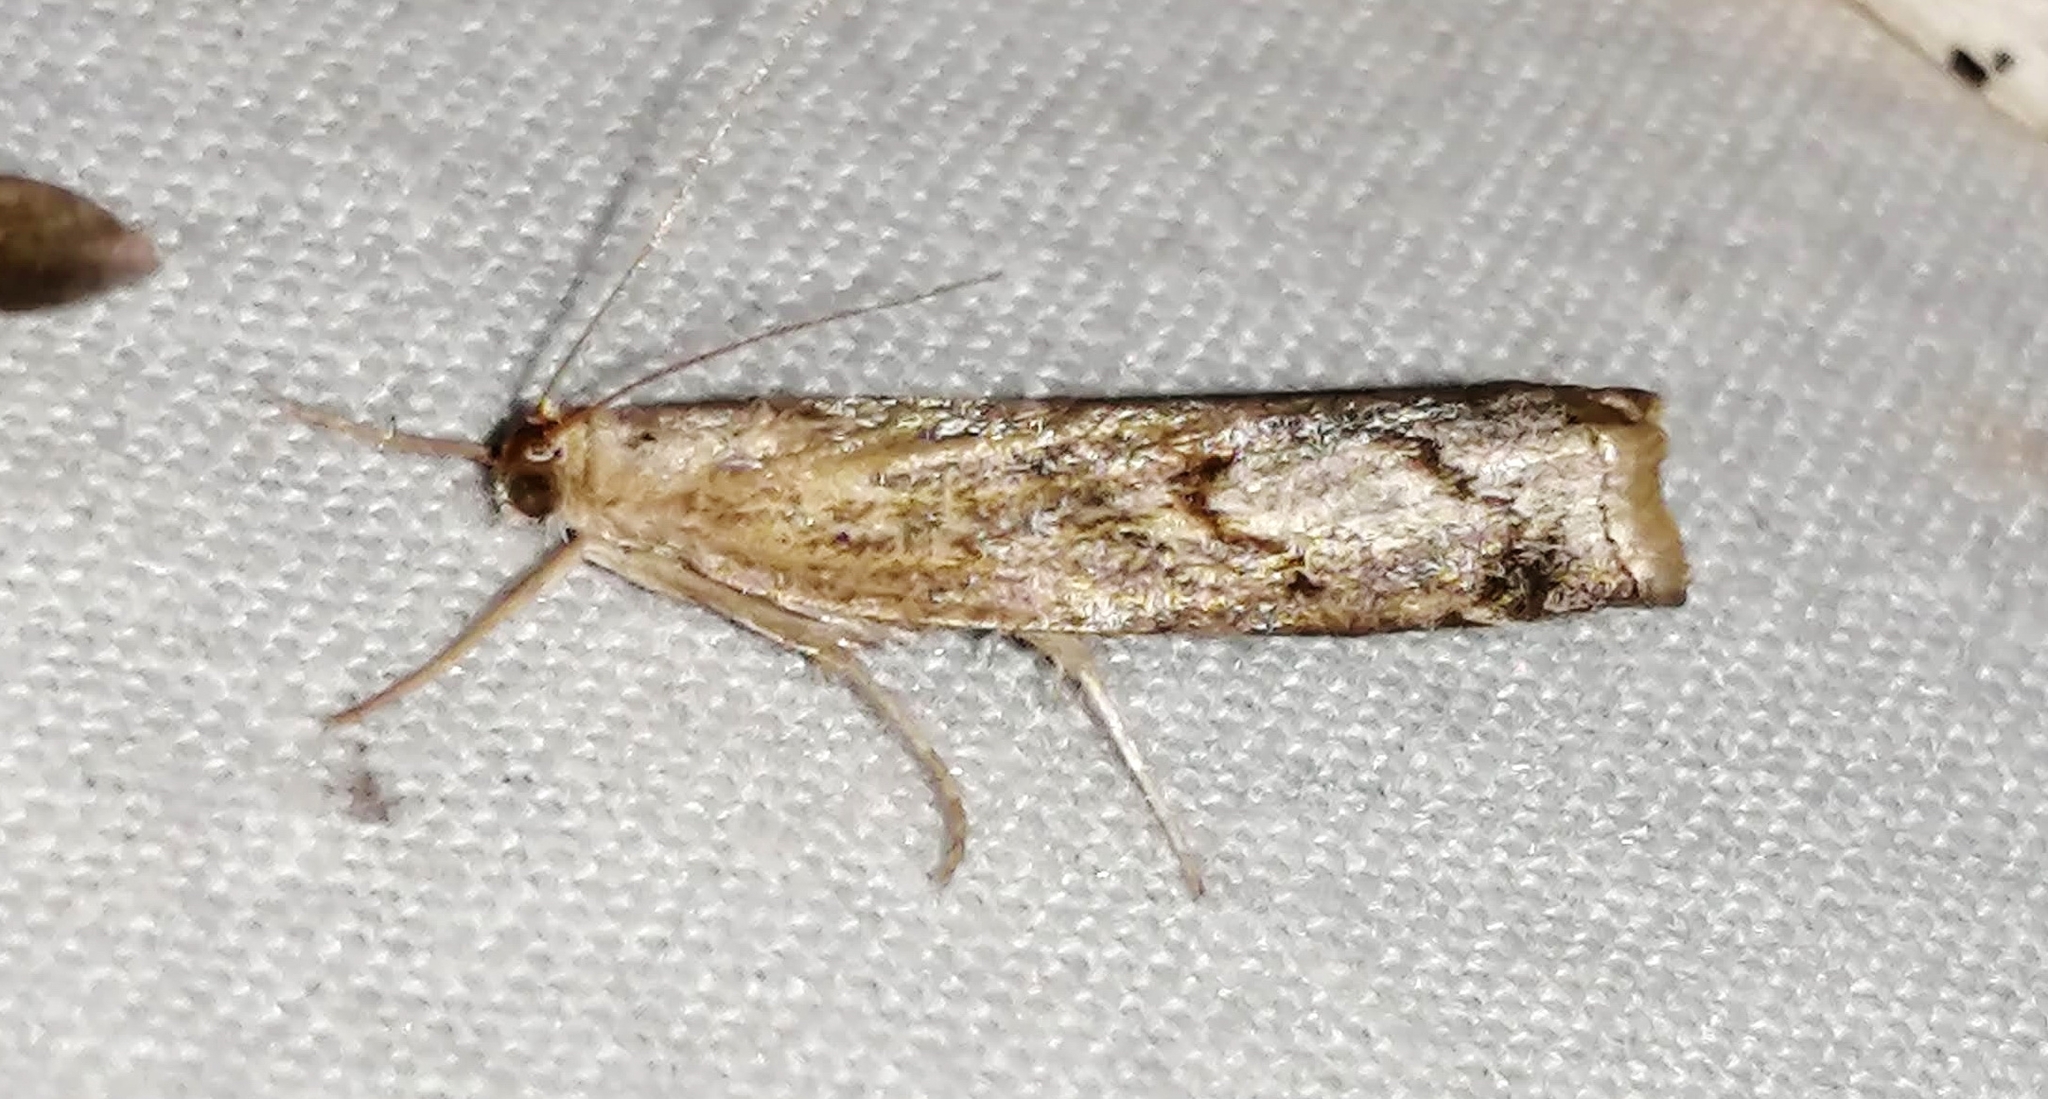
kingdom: Animalia
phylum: Arthropoda
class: Insecta
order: Lepidoptera
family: Crambidae
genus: Neodactria
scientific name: Neodactria luteolellus
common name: Mottled grass-veneer
